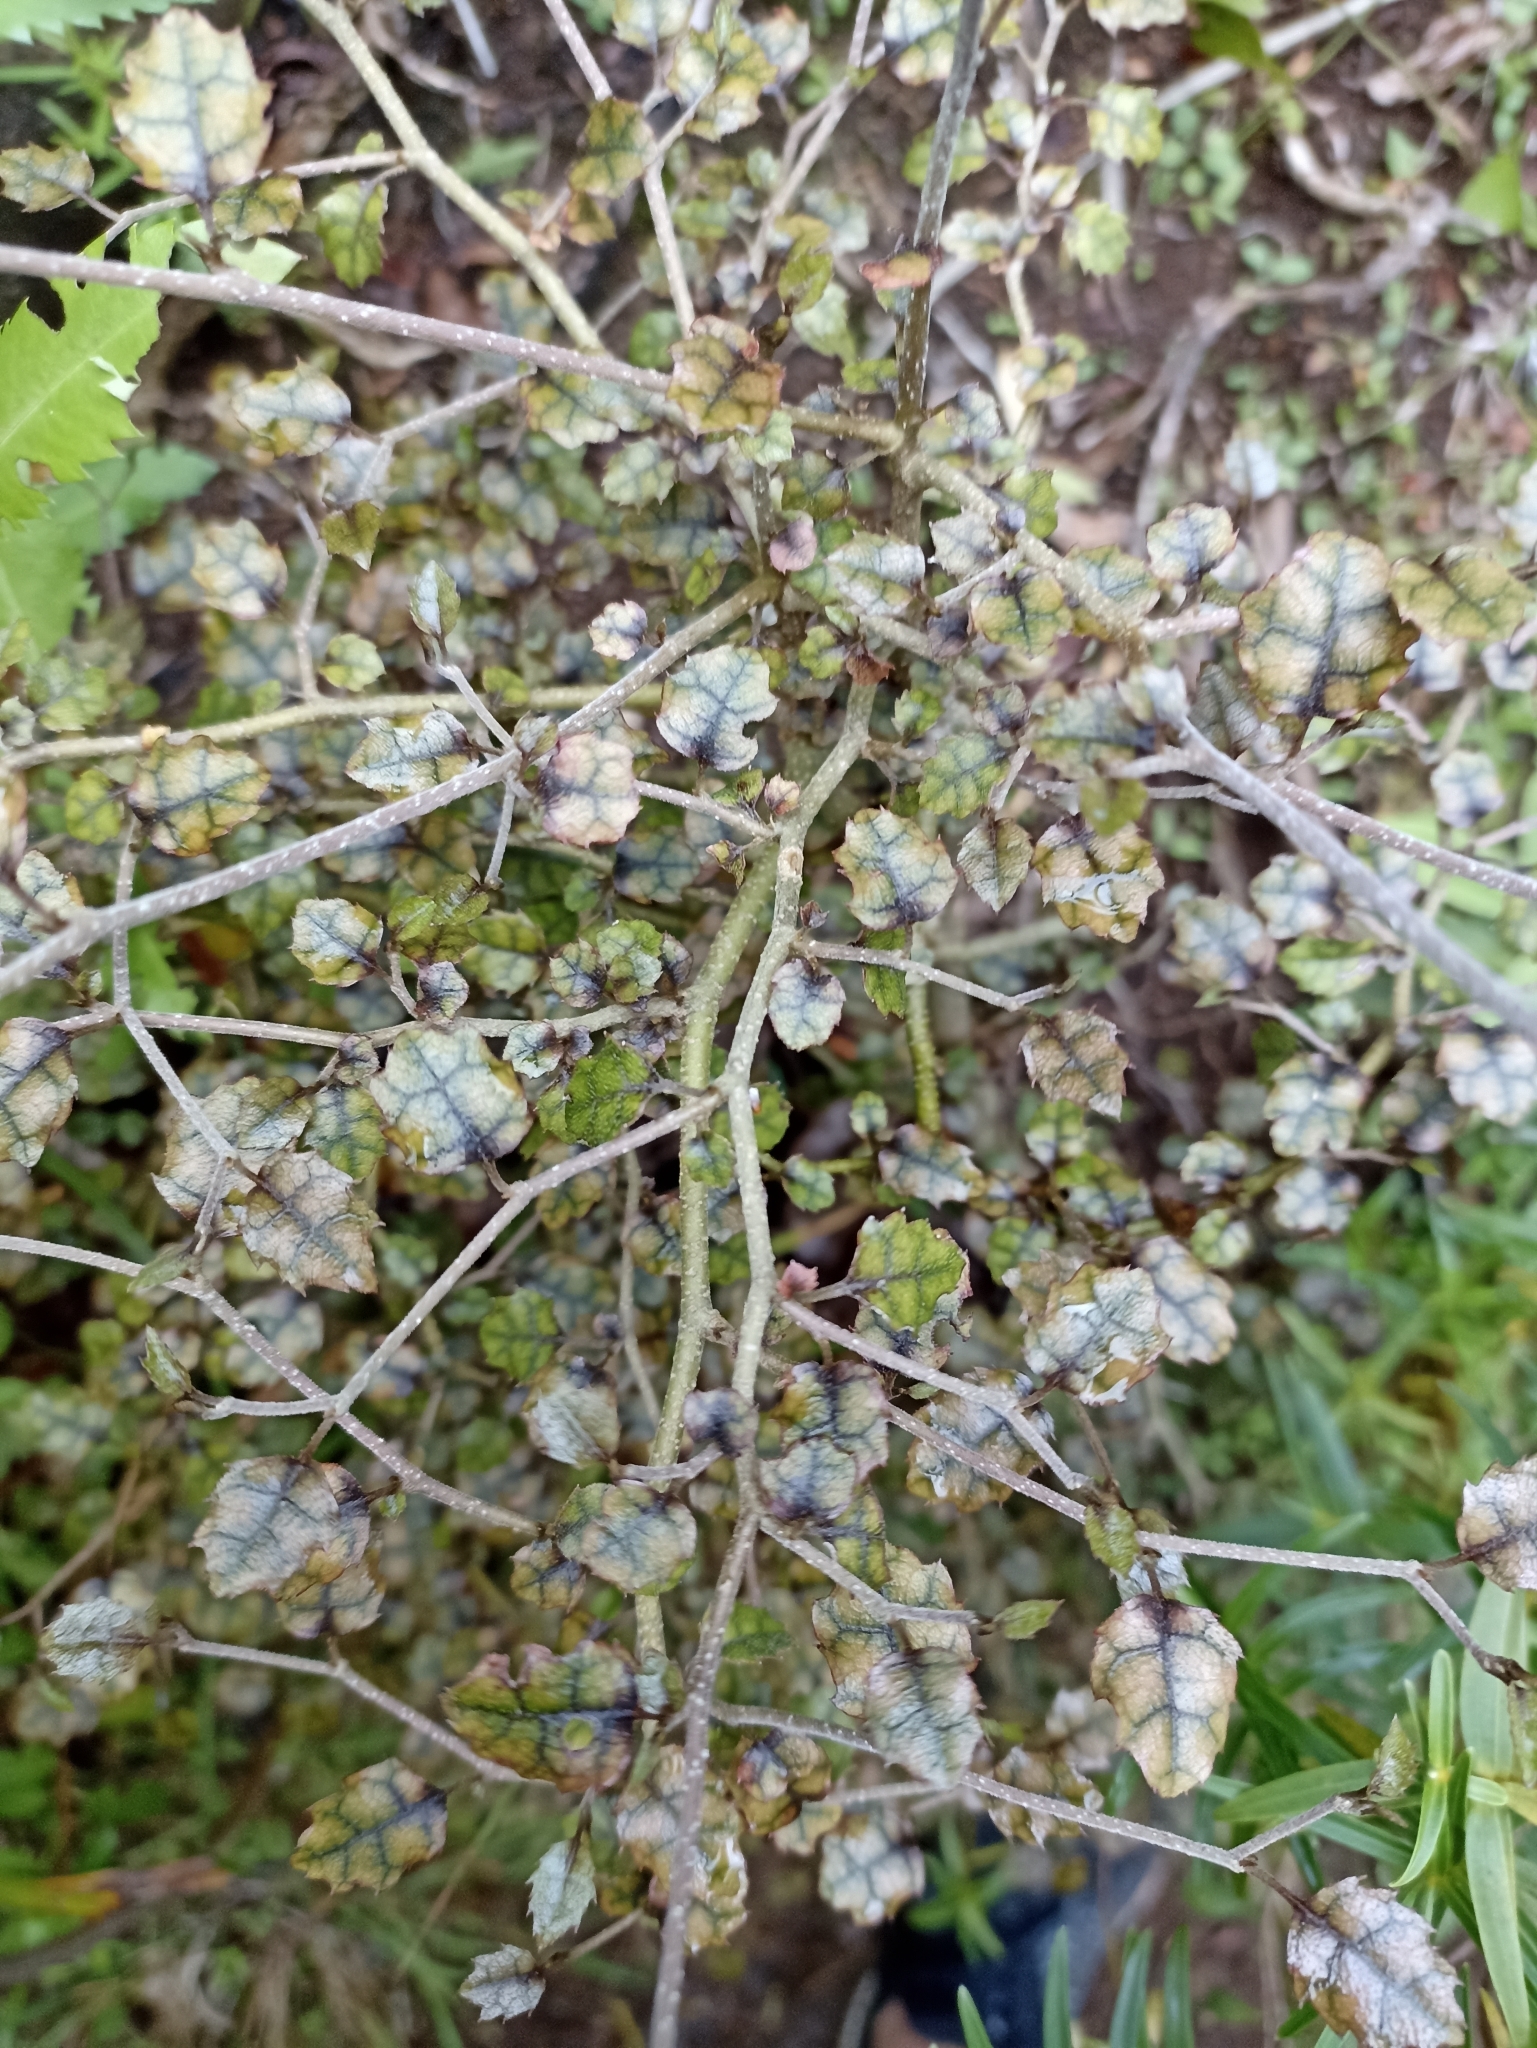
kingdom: Plantae
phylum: Tracheophyta
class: Magnoliopsida
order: Asterales
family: Rousseaceae
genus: Carpodetus
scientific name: Carpodetus serratus
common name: White mapau
